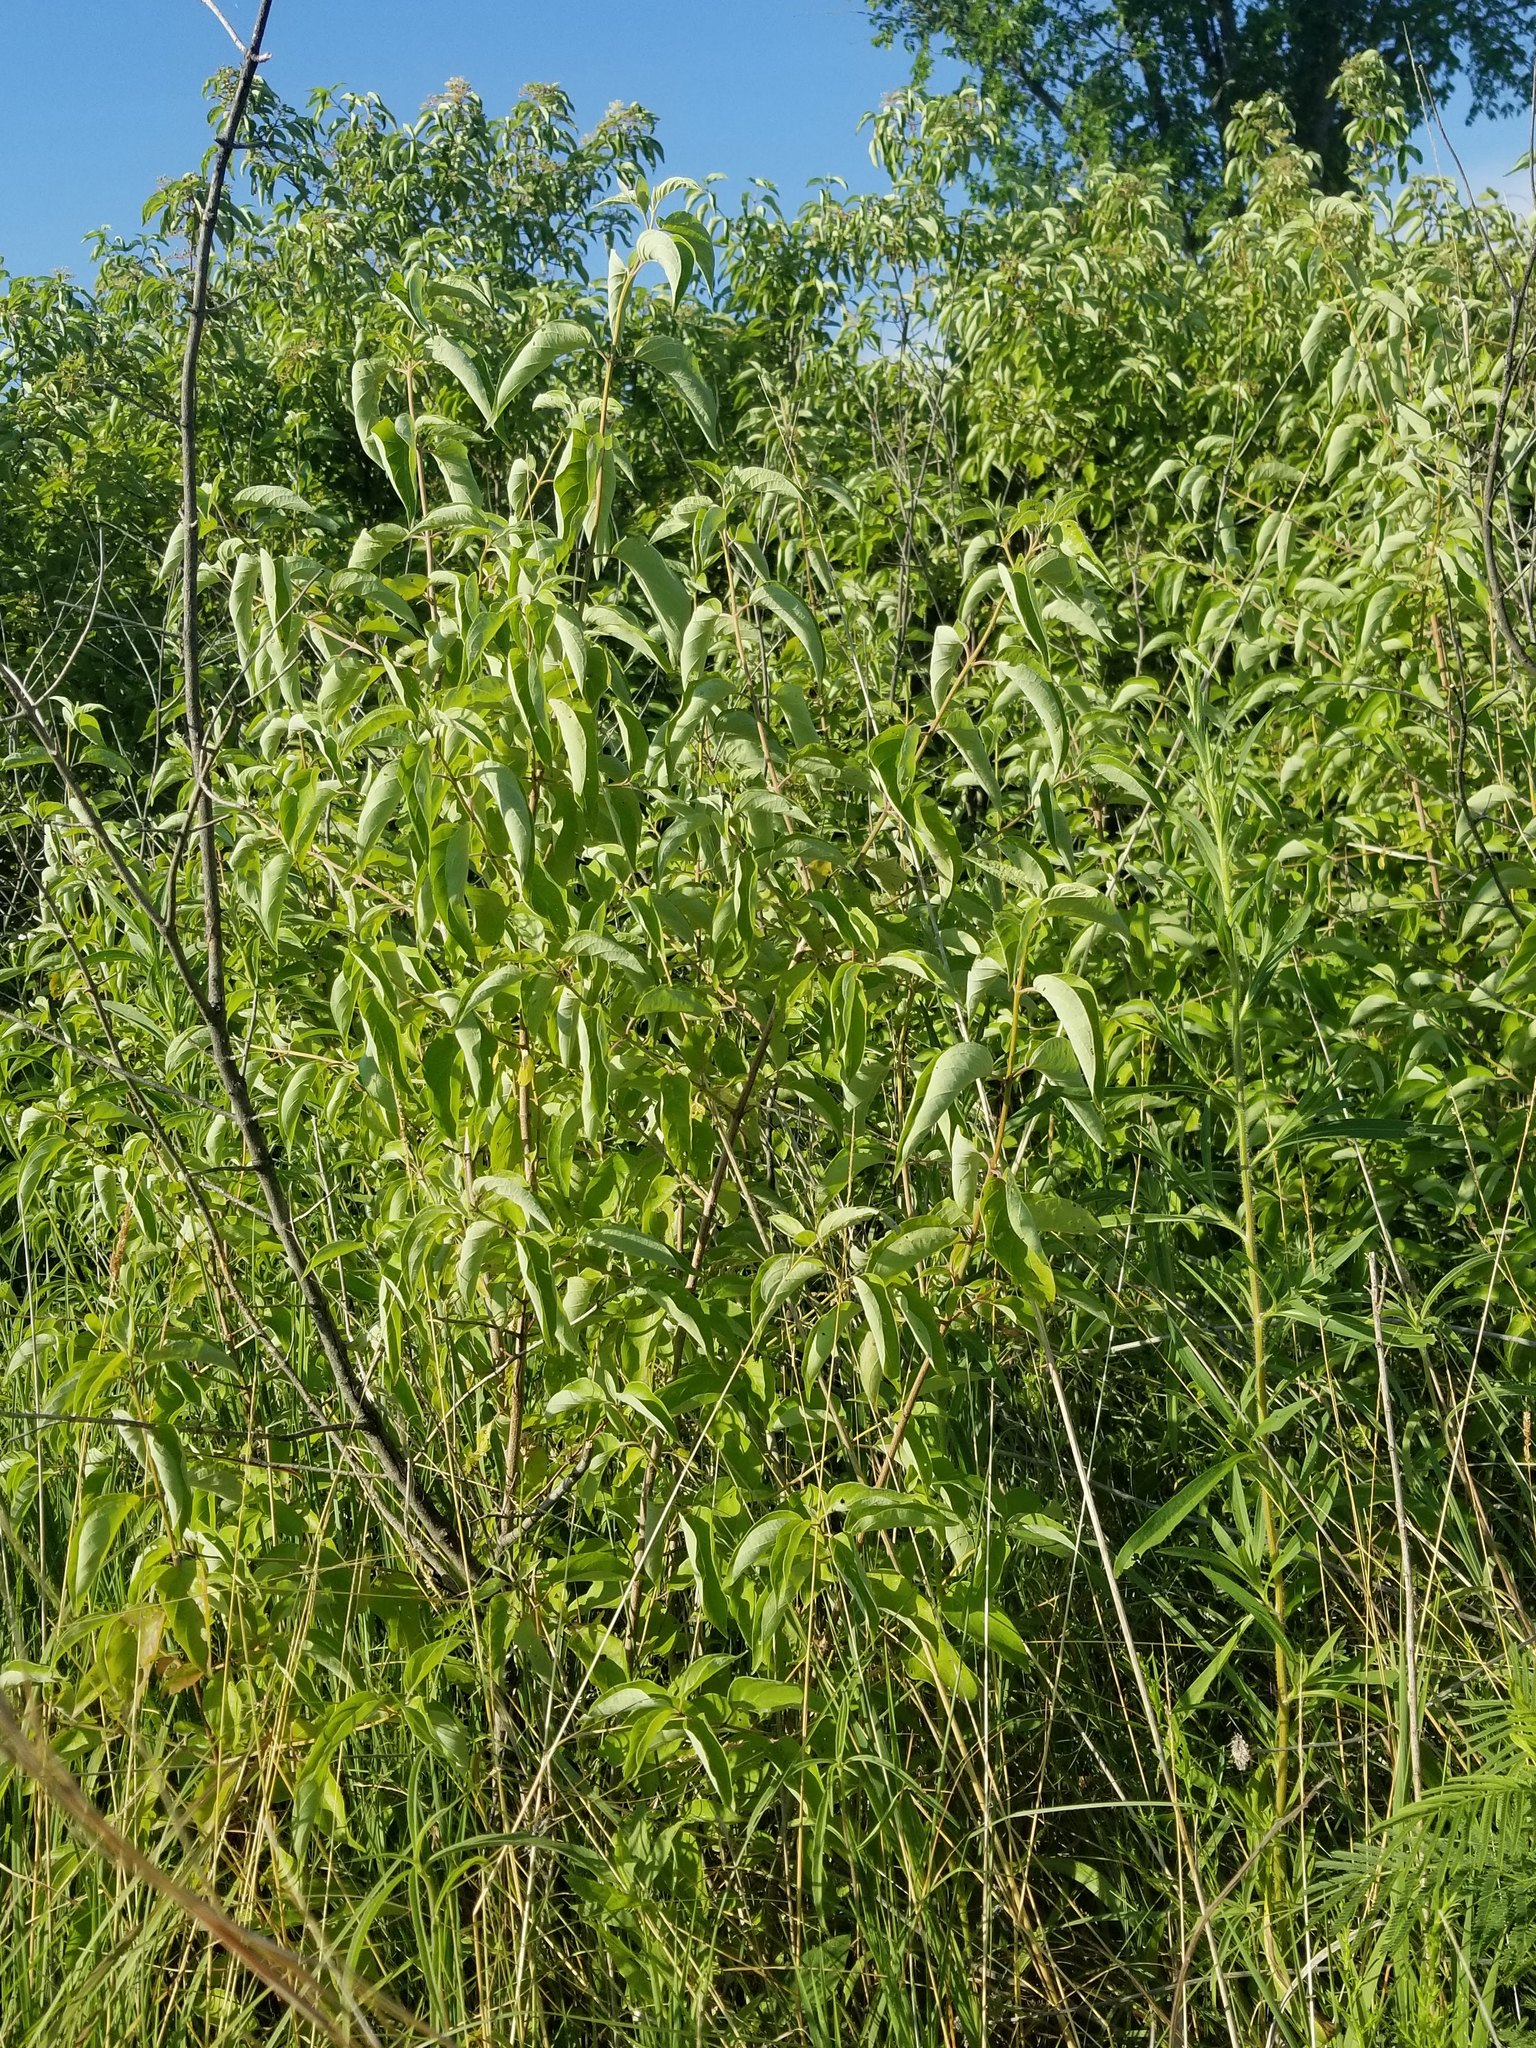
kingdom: Plantae
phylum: Tracheophyta
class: Magnoliopsida
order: Cornales
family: Cornaceae
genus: Cornus
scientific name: Cornus drummondii
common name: Rough-leaf dogwood
